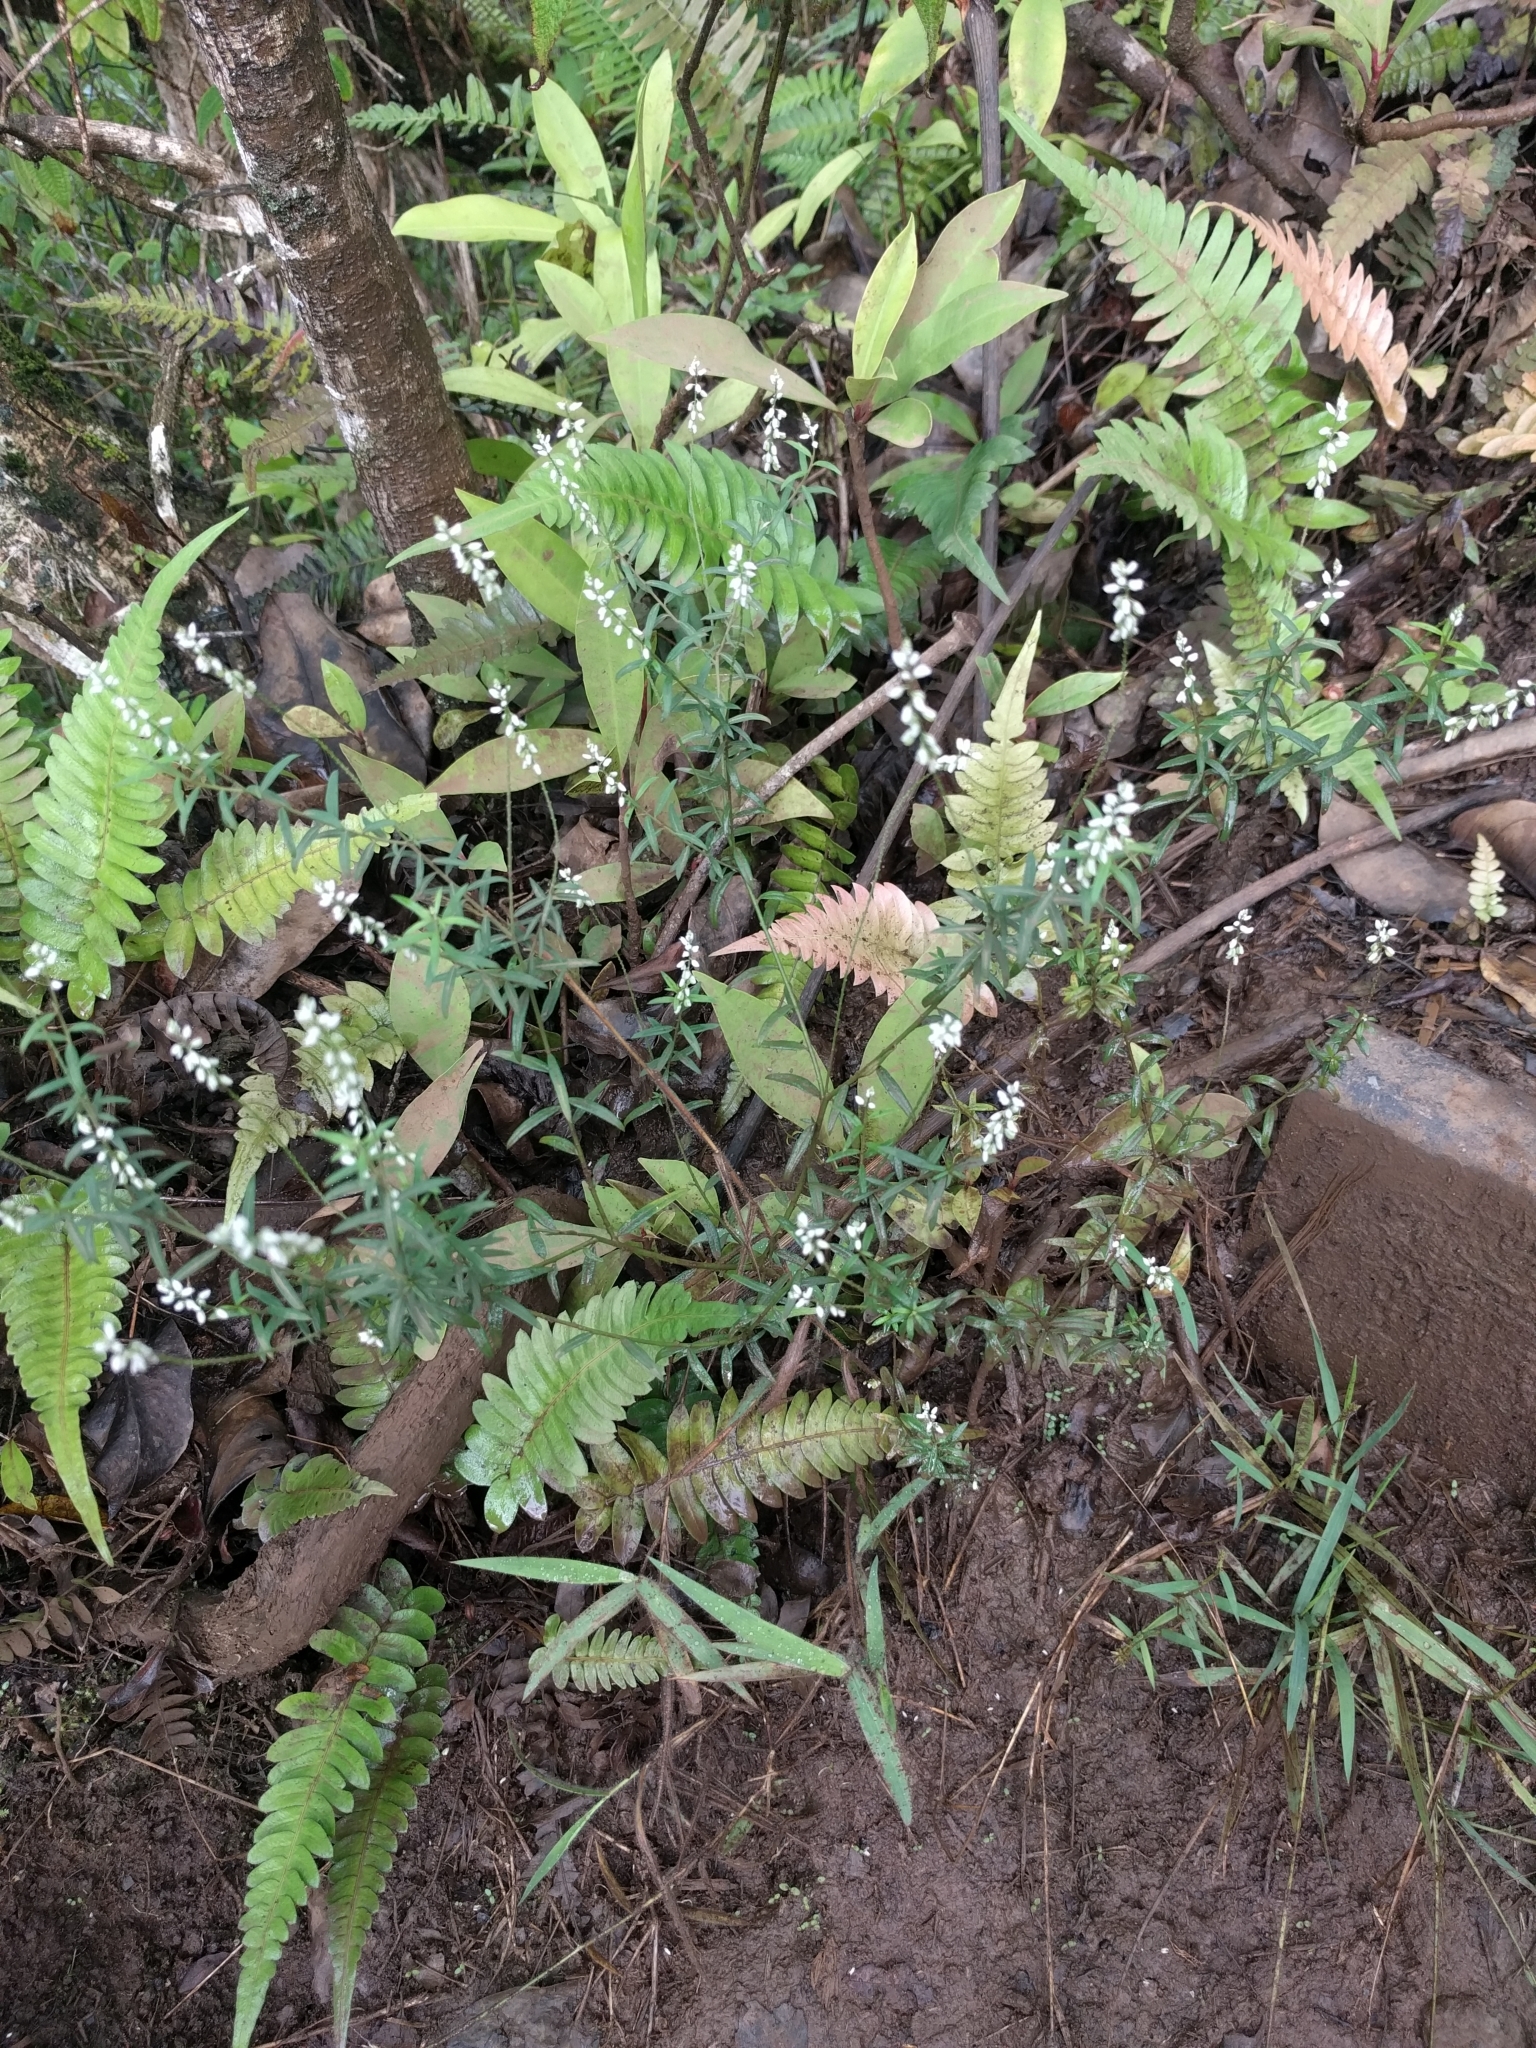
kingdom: Plantae
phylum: Tracheophyta
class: Magnoliopsida
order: Fabales
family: Polygalaceae
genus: Polygala
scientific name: Polygala paniculata
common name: Orosne
